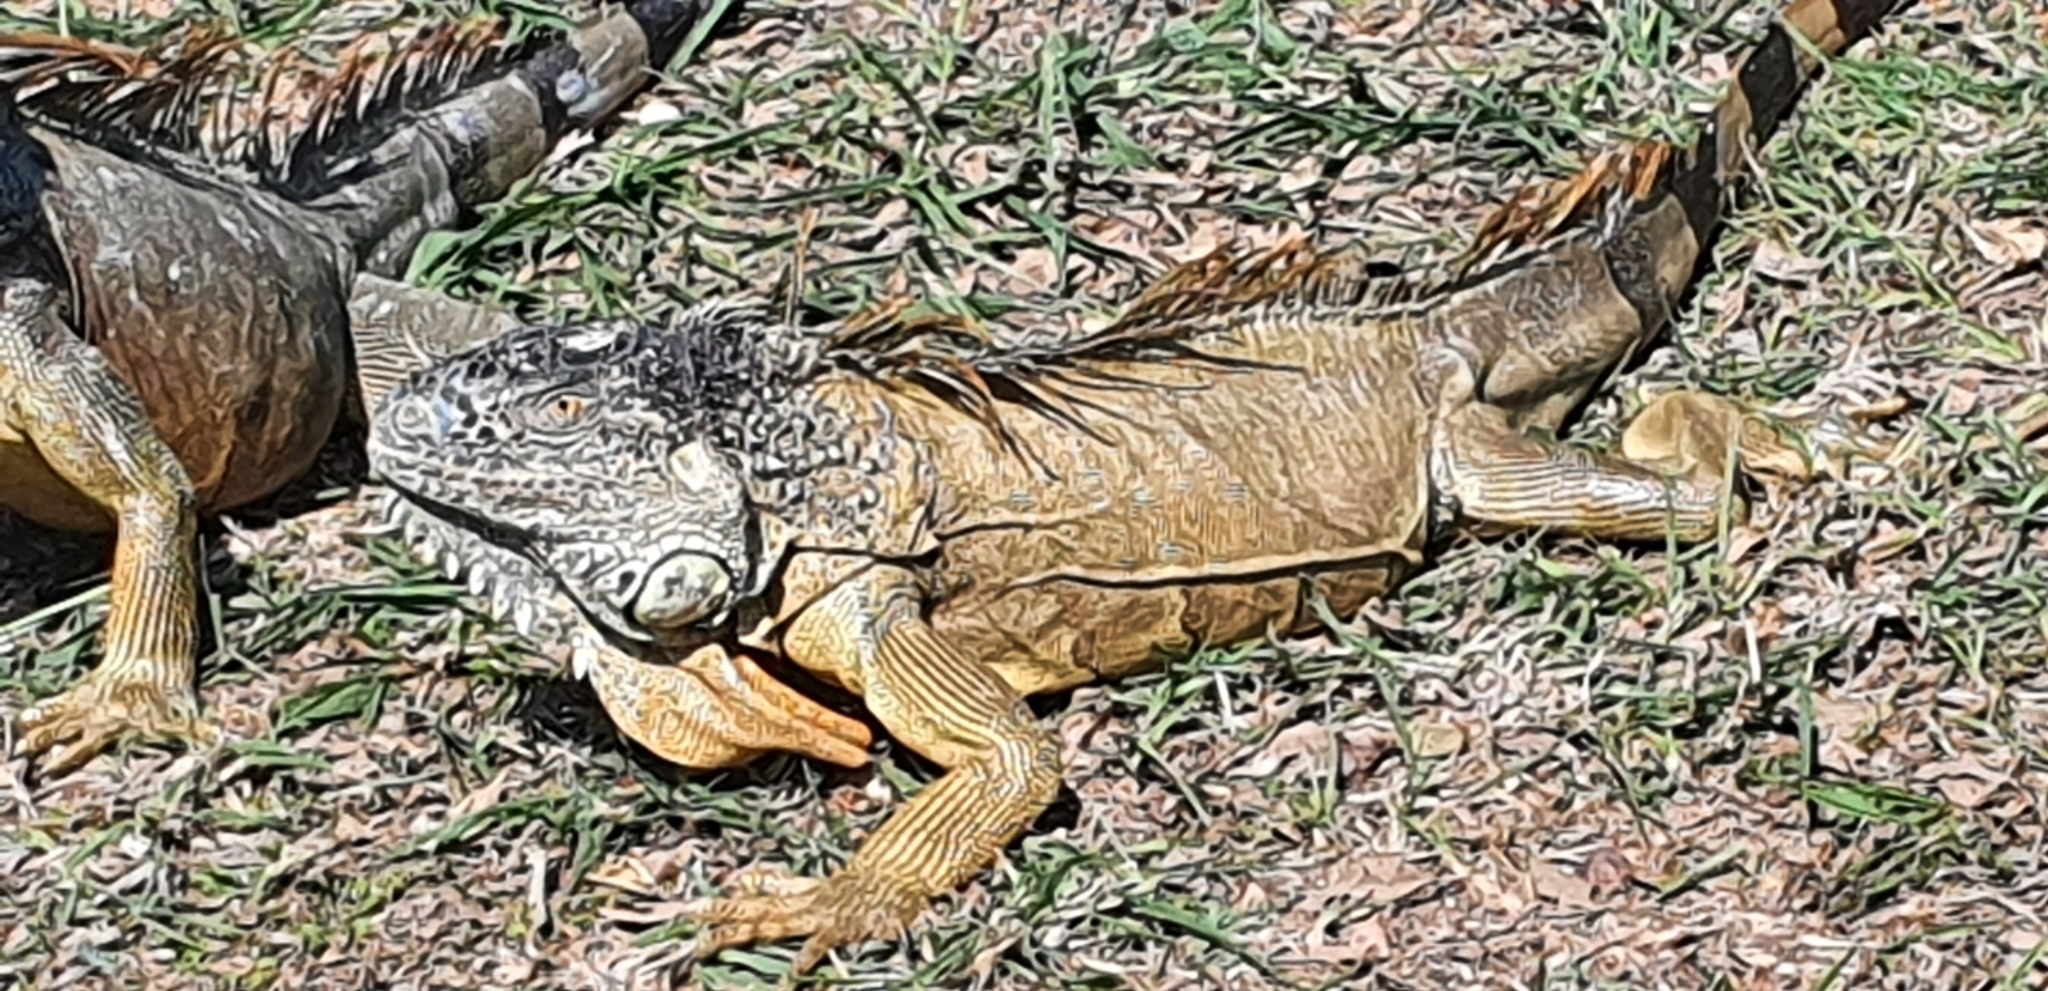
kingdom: Animalia
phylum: Chordata
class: Squamata
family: Iguanidae
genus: Iguana
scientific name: Iguana iguana
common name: Green iguana
